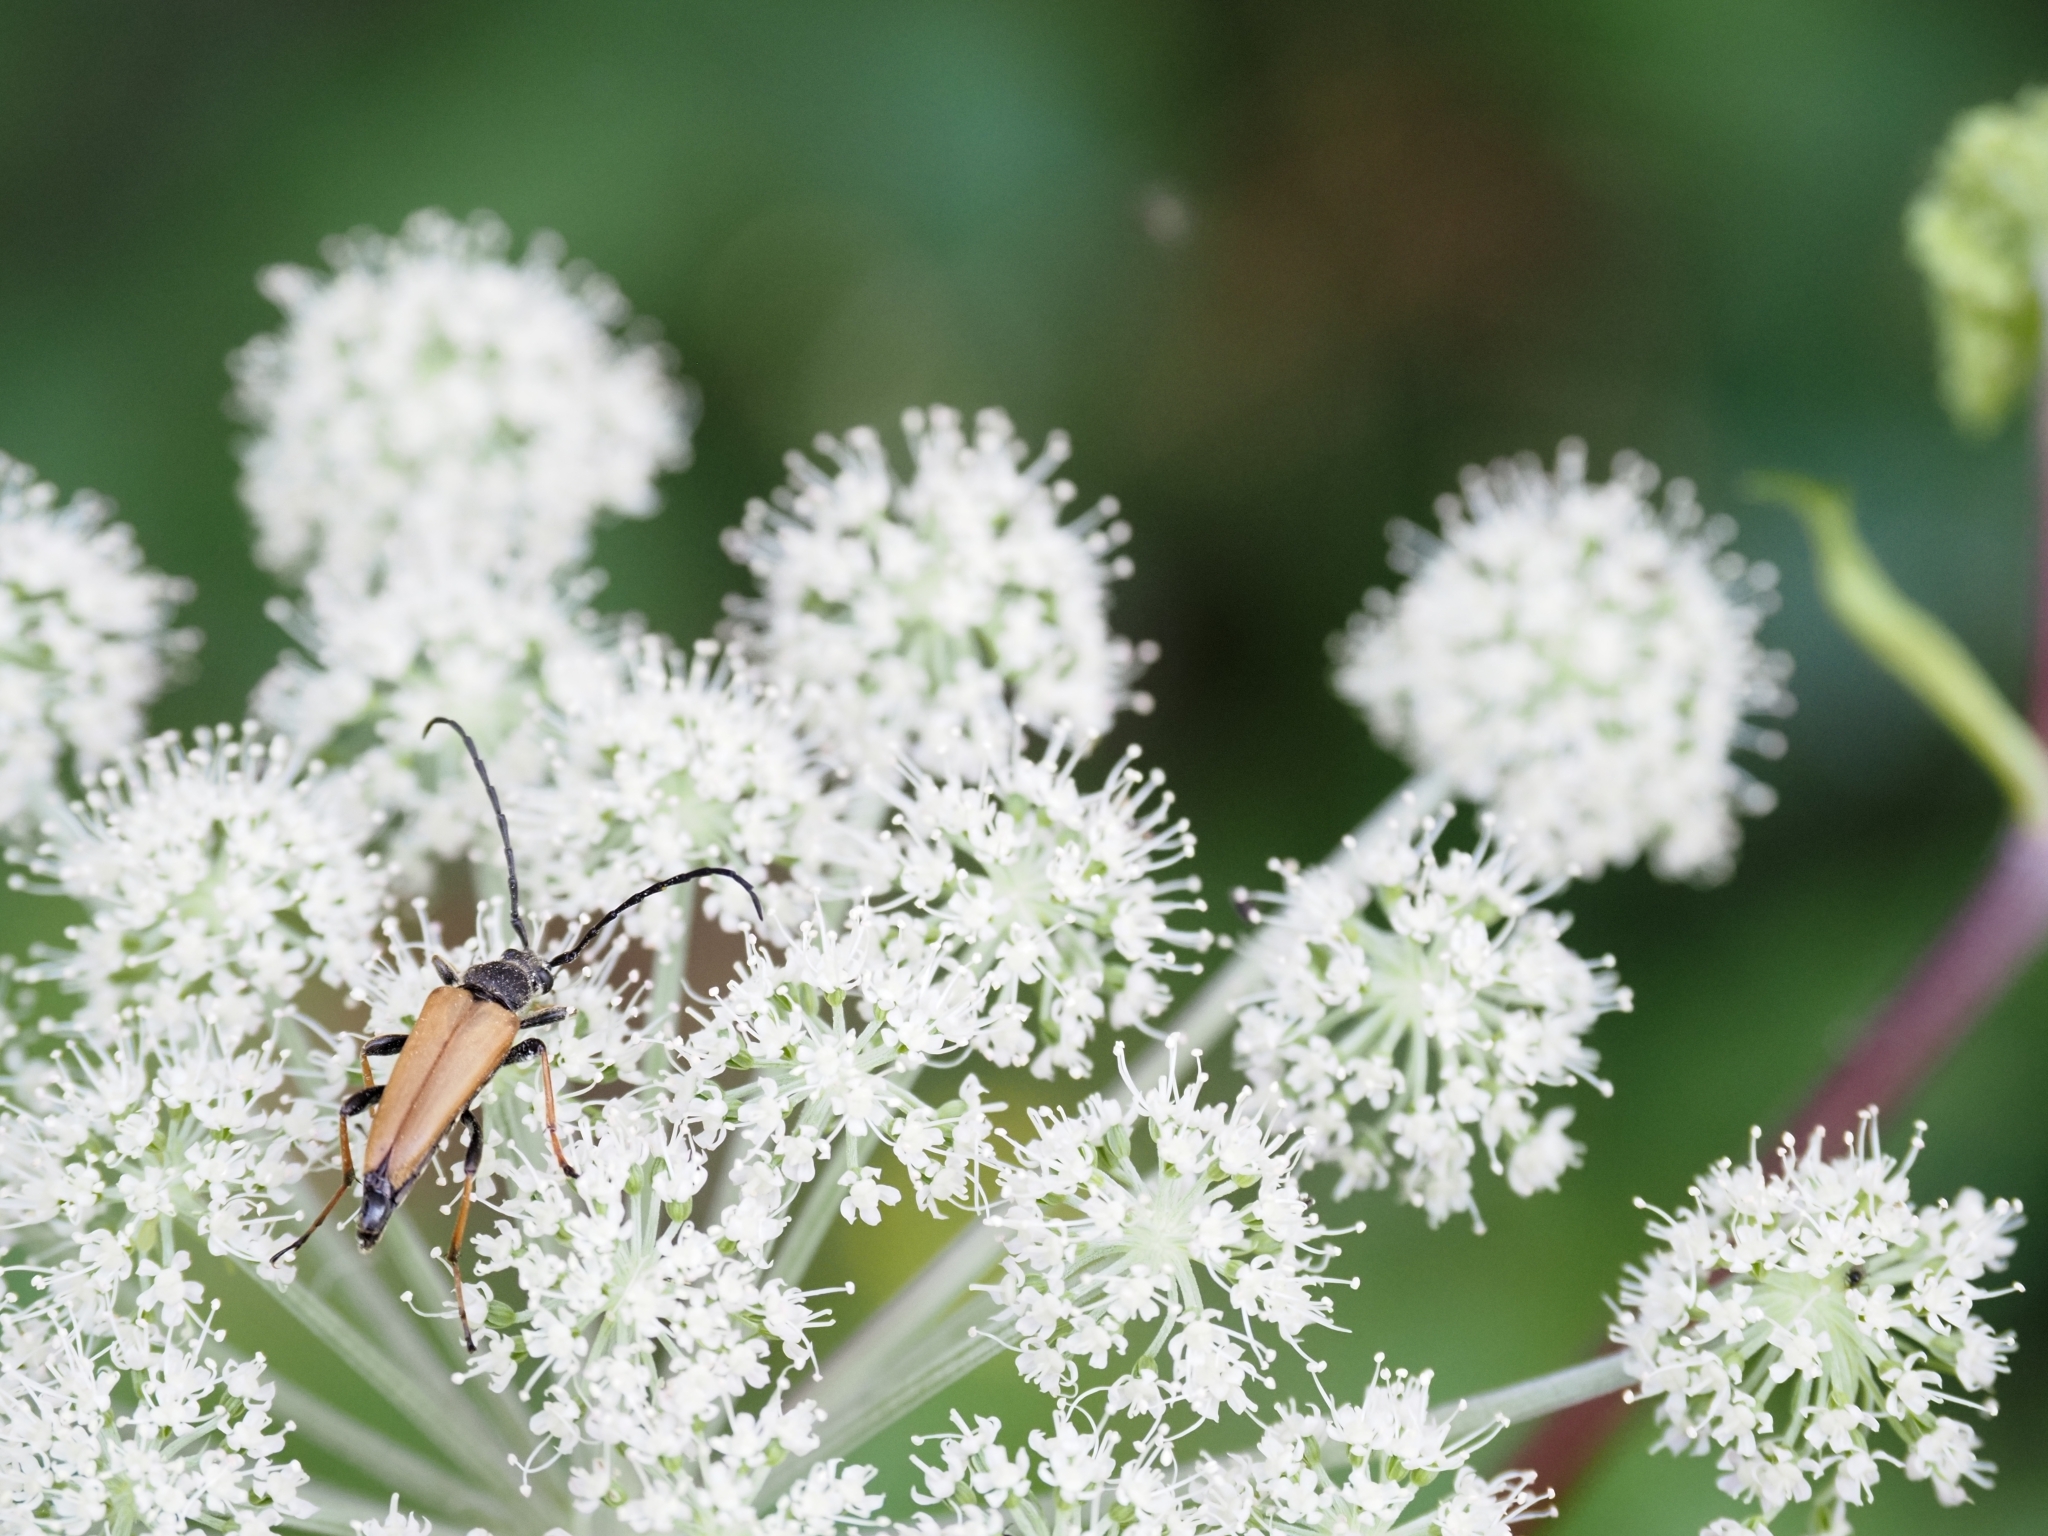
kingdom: Animalia
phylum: Arthropoda
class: Insecta
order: Coleoptera
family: Cerambycidae
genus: Stictoleptura
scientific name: Stictoleptura rubra
